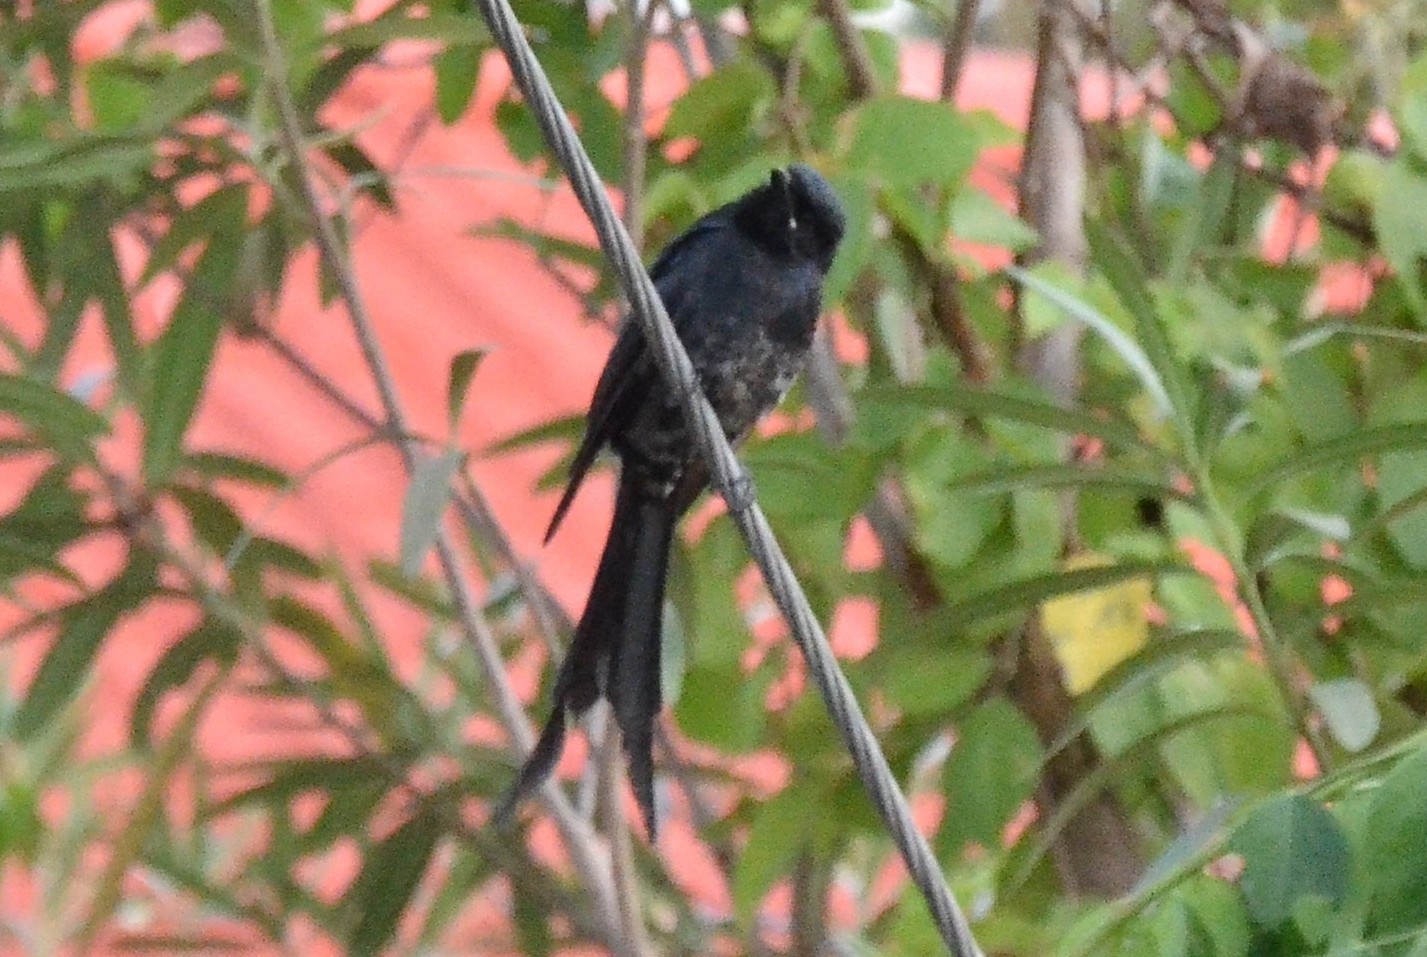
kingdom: Animalia
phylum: Chordata
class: Aves
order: Passeriformes
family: Dicruridae
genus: Dicrurus
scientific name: Dicrurus macrocercus
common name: Black drongo
